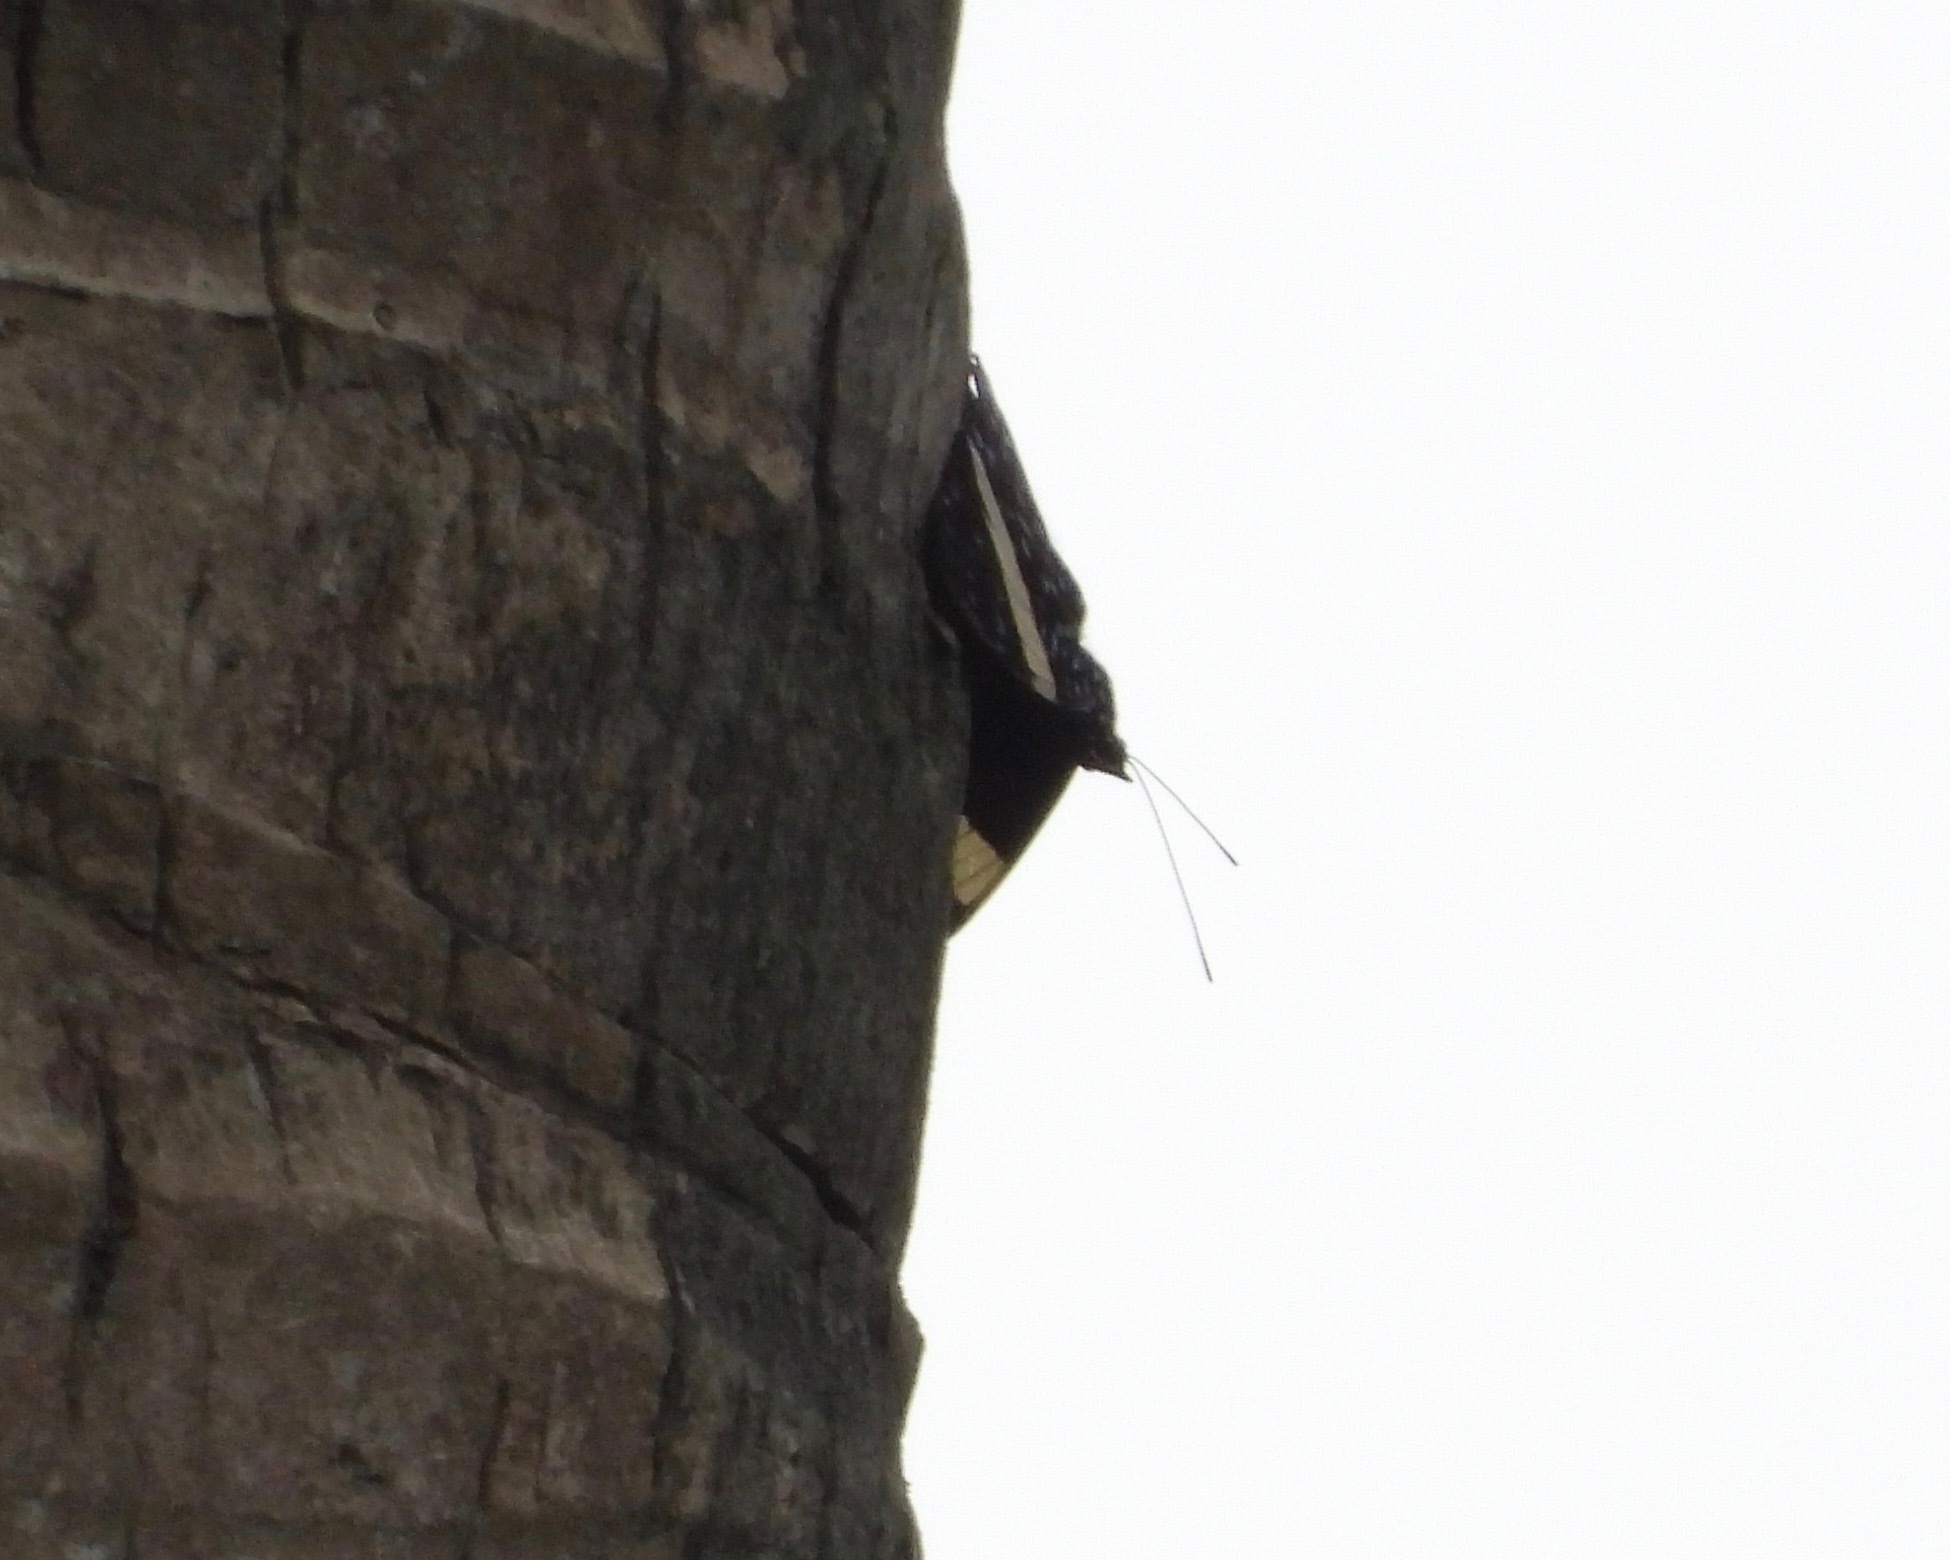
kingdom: Animalia
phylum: Arthropoda
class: Insecta
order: Lepidoptera
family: Nymphalidae
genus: Hamadryas
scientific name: Hamadryas laodamia
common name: Starry night cracker
